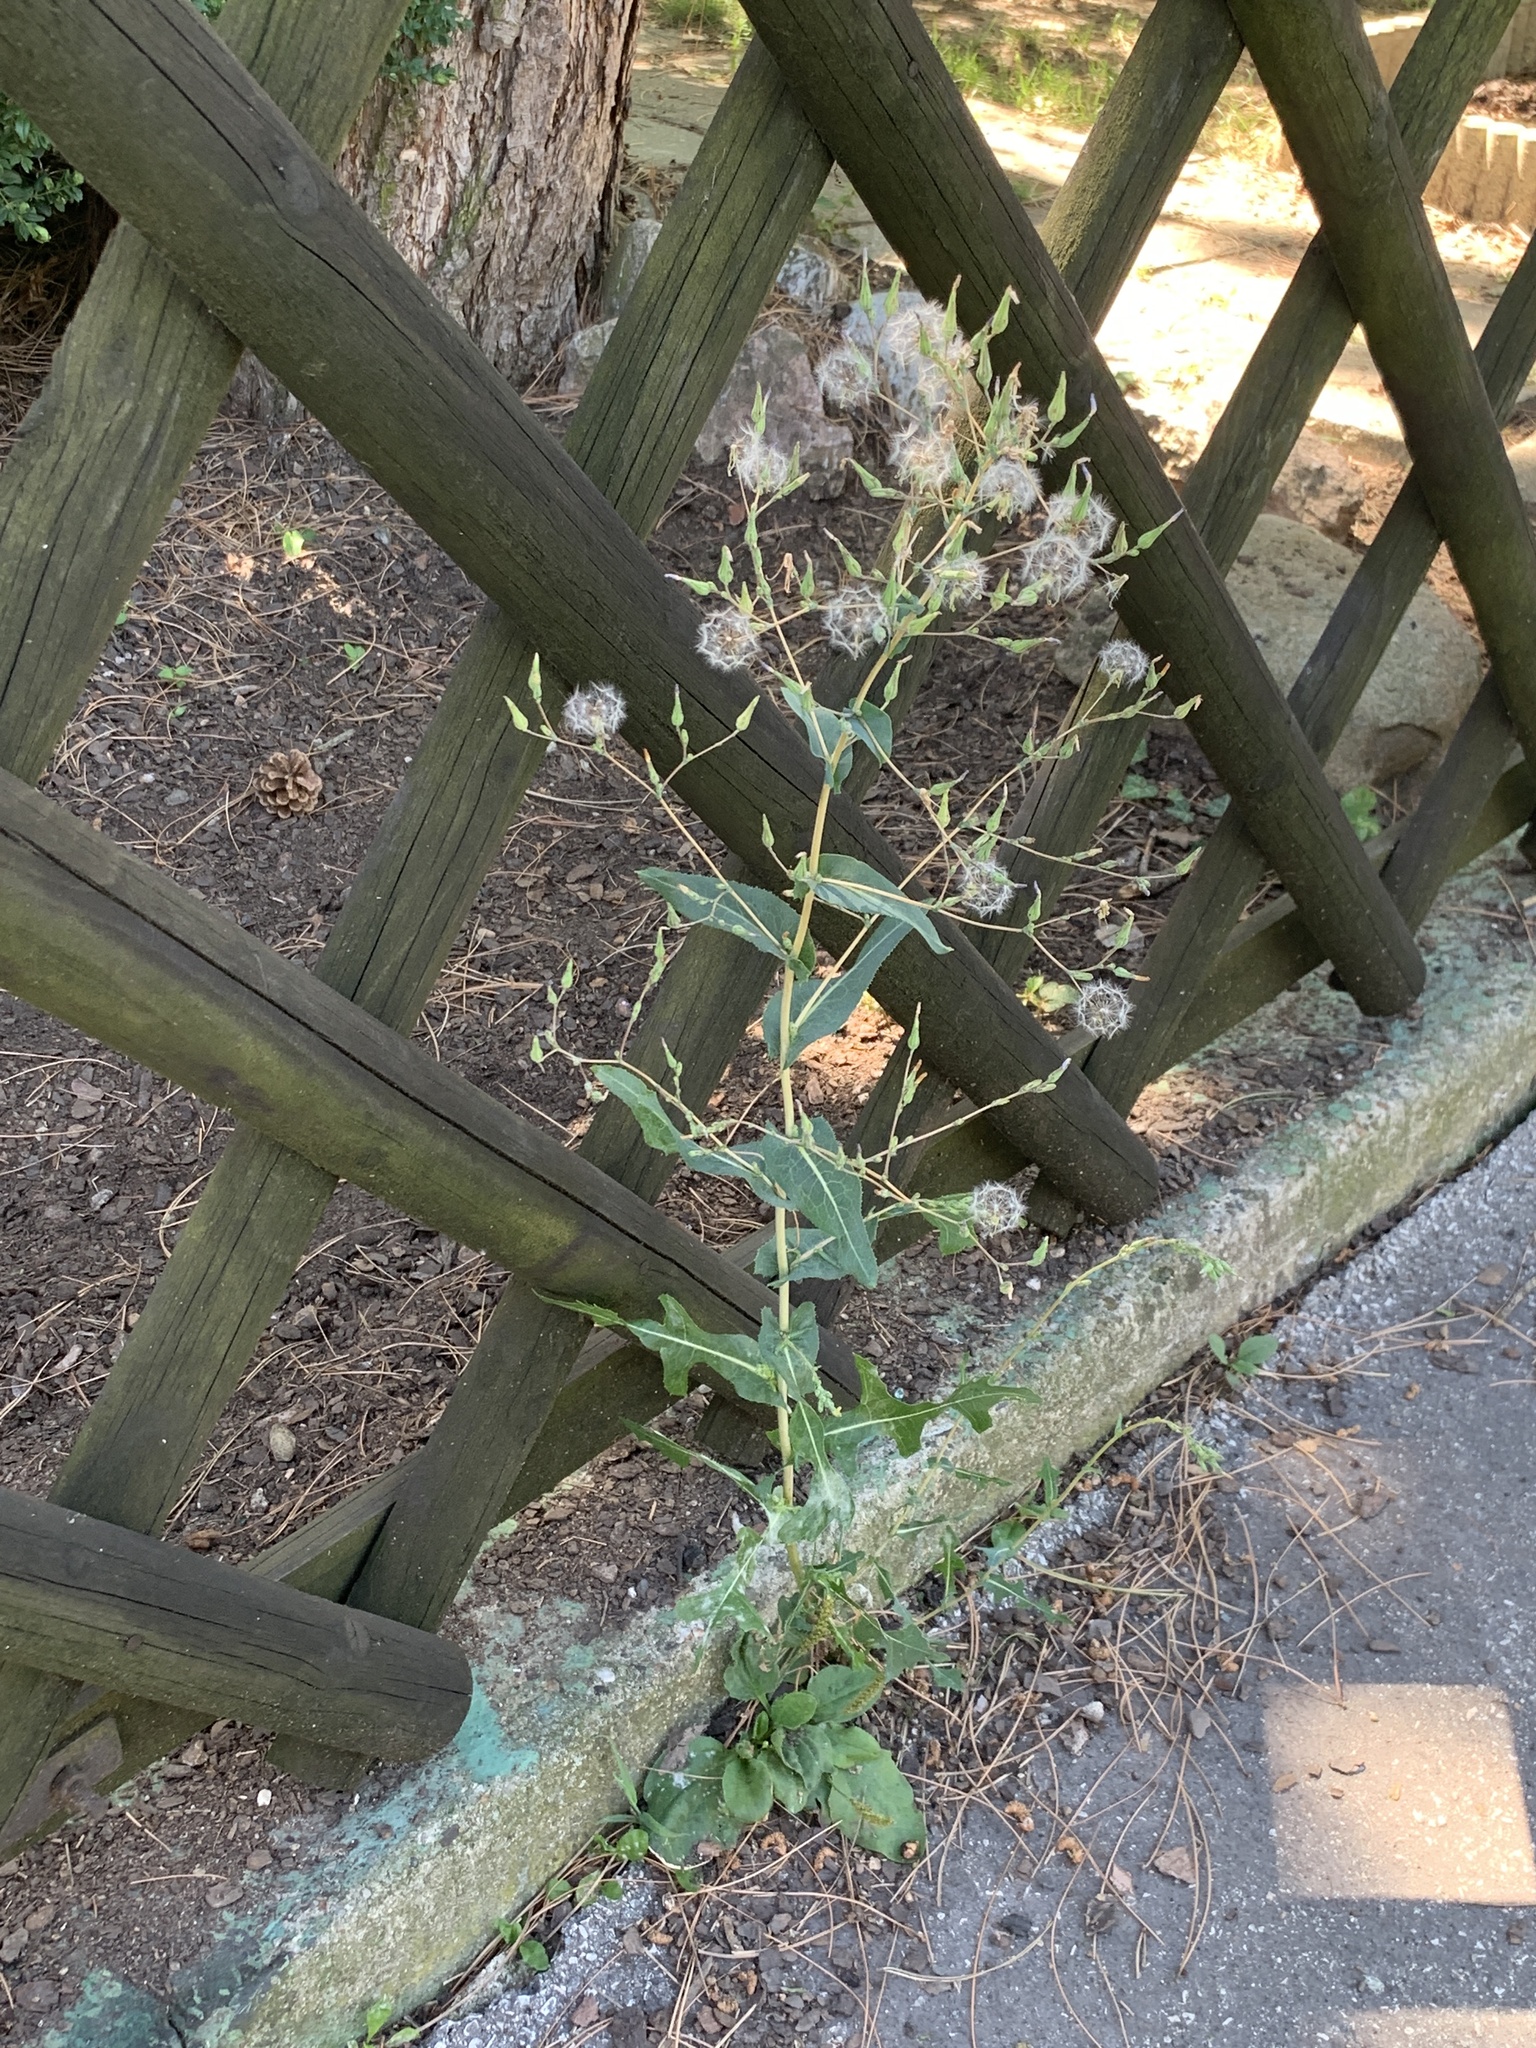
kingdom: Plantae
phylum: Tracheophyta
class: Magnoliopsida
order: Asterales
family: Asteraceae
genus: Lactuca
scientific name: Lactuca serriola
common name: Prickly lettuce
